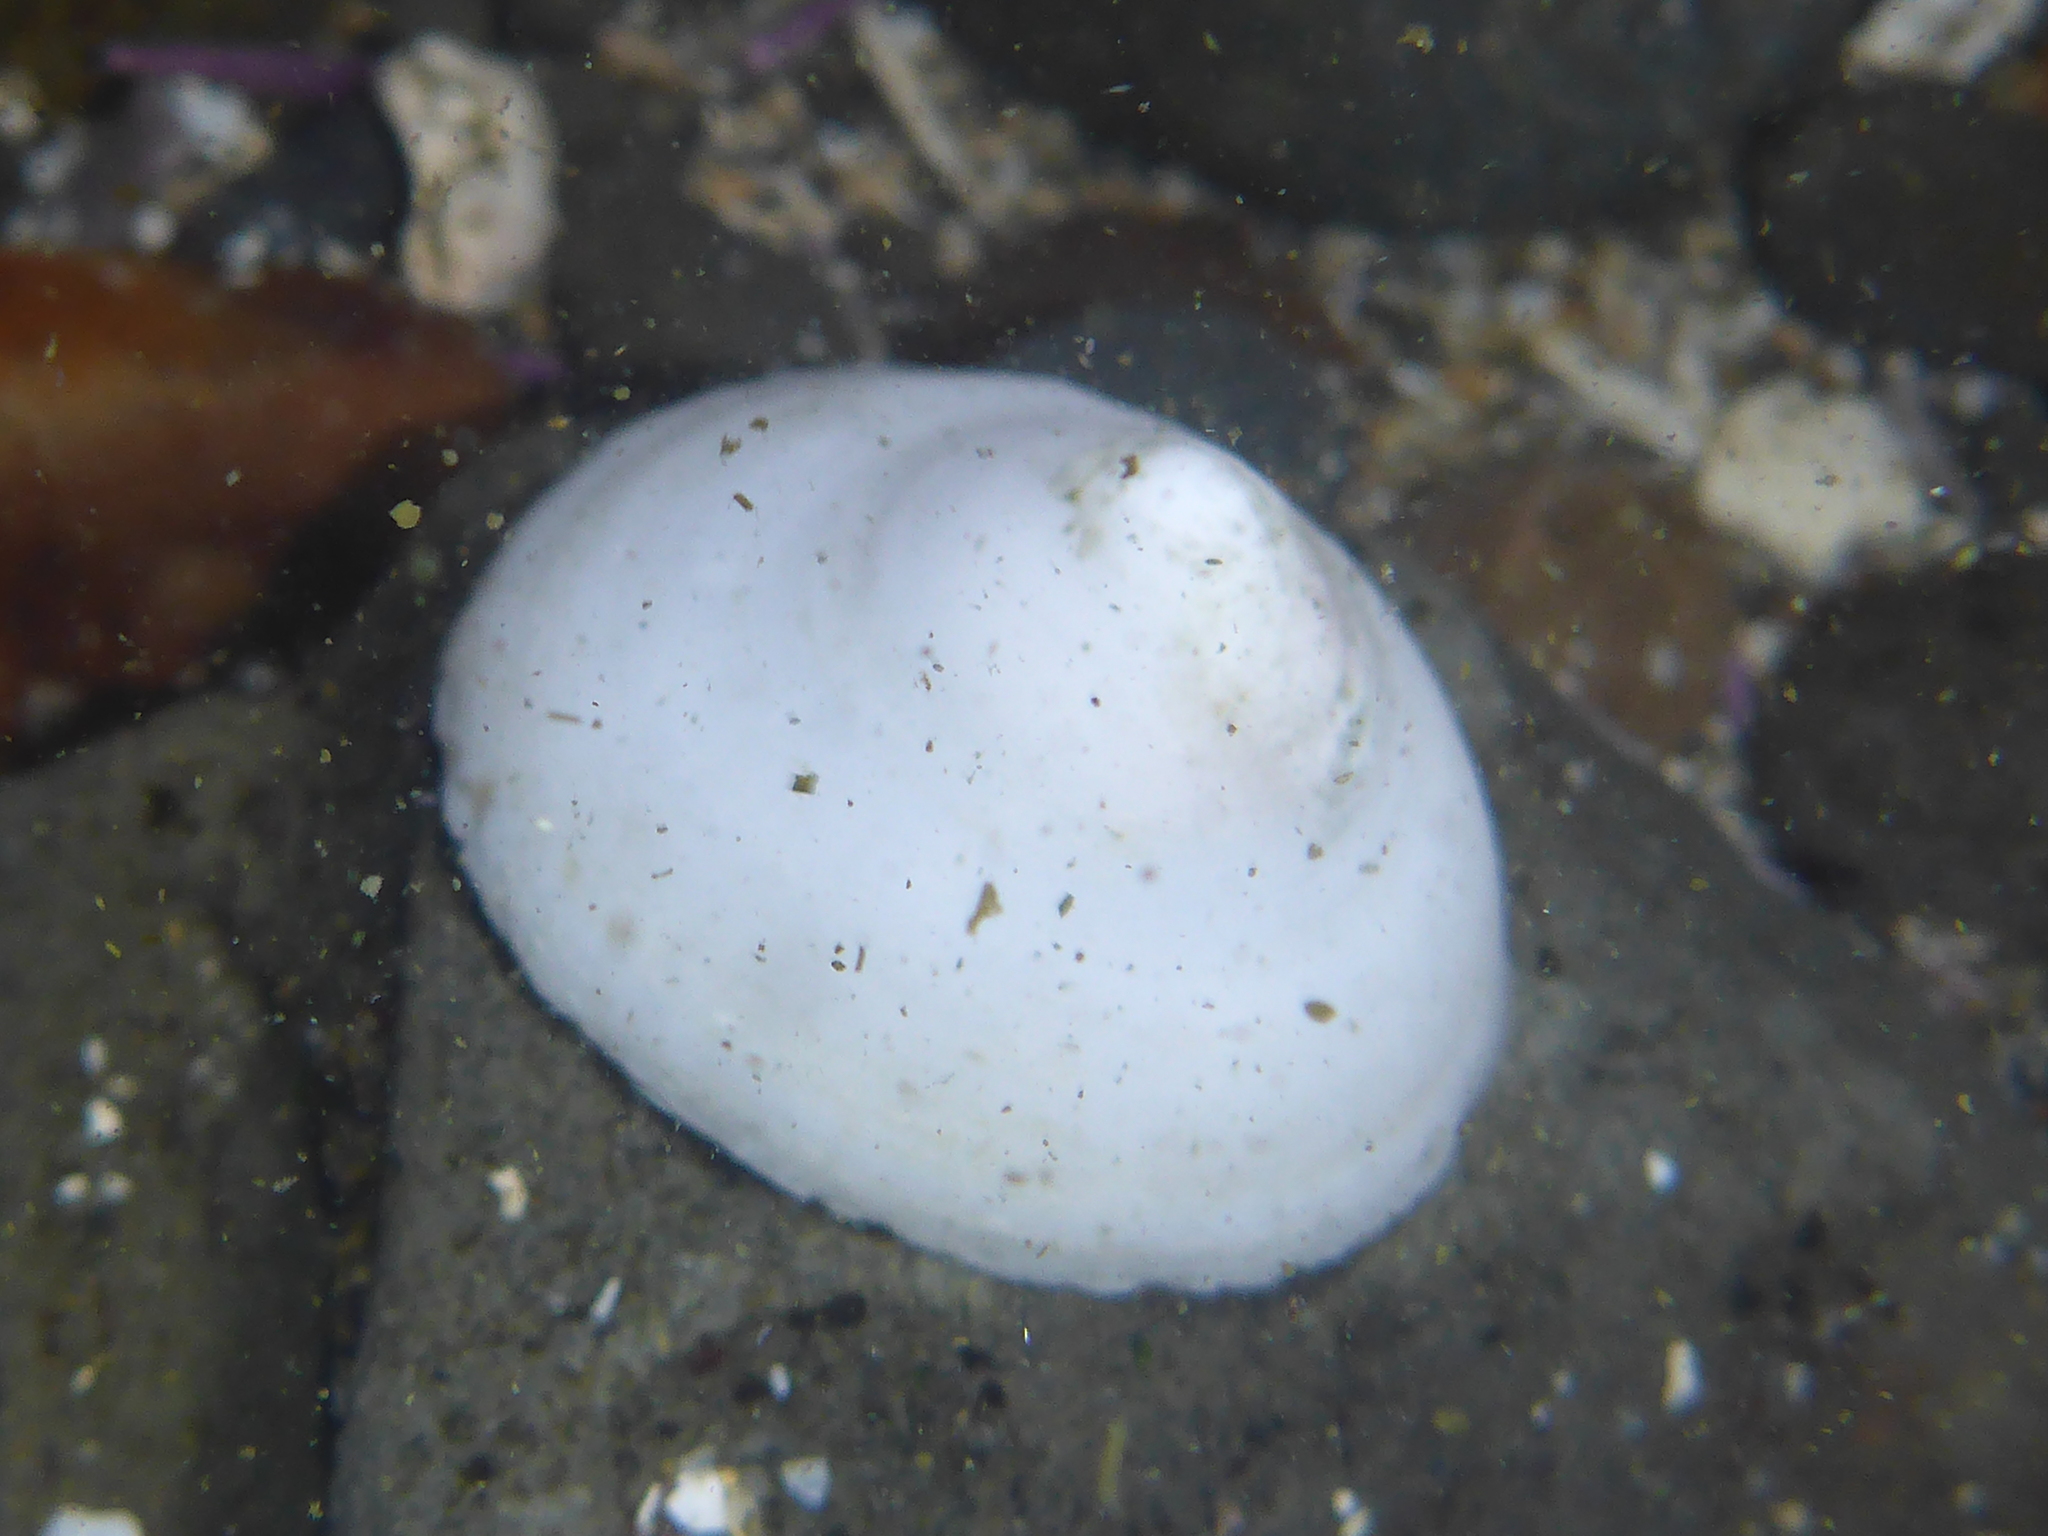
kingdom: Animalia
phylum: Mollusca
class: Gastropoda
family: Acmaeidae
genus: Acmaea
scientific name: Acmaea mitra
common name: Pacific white cap limpet
